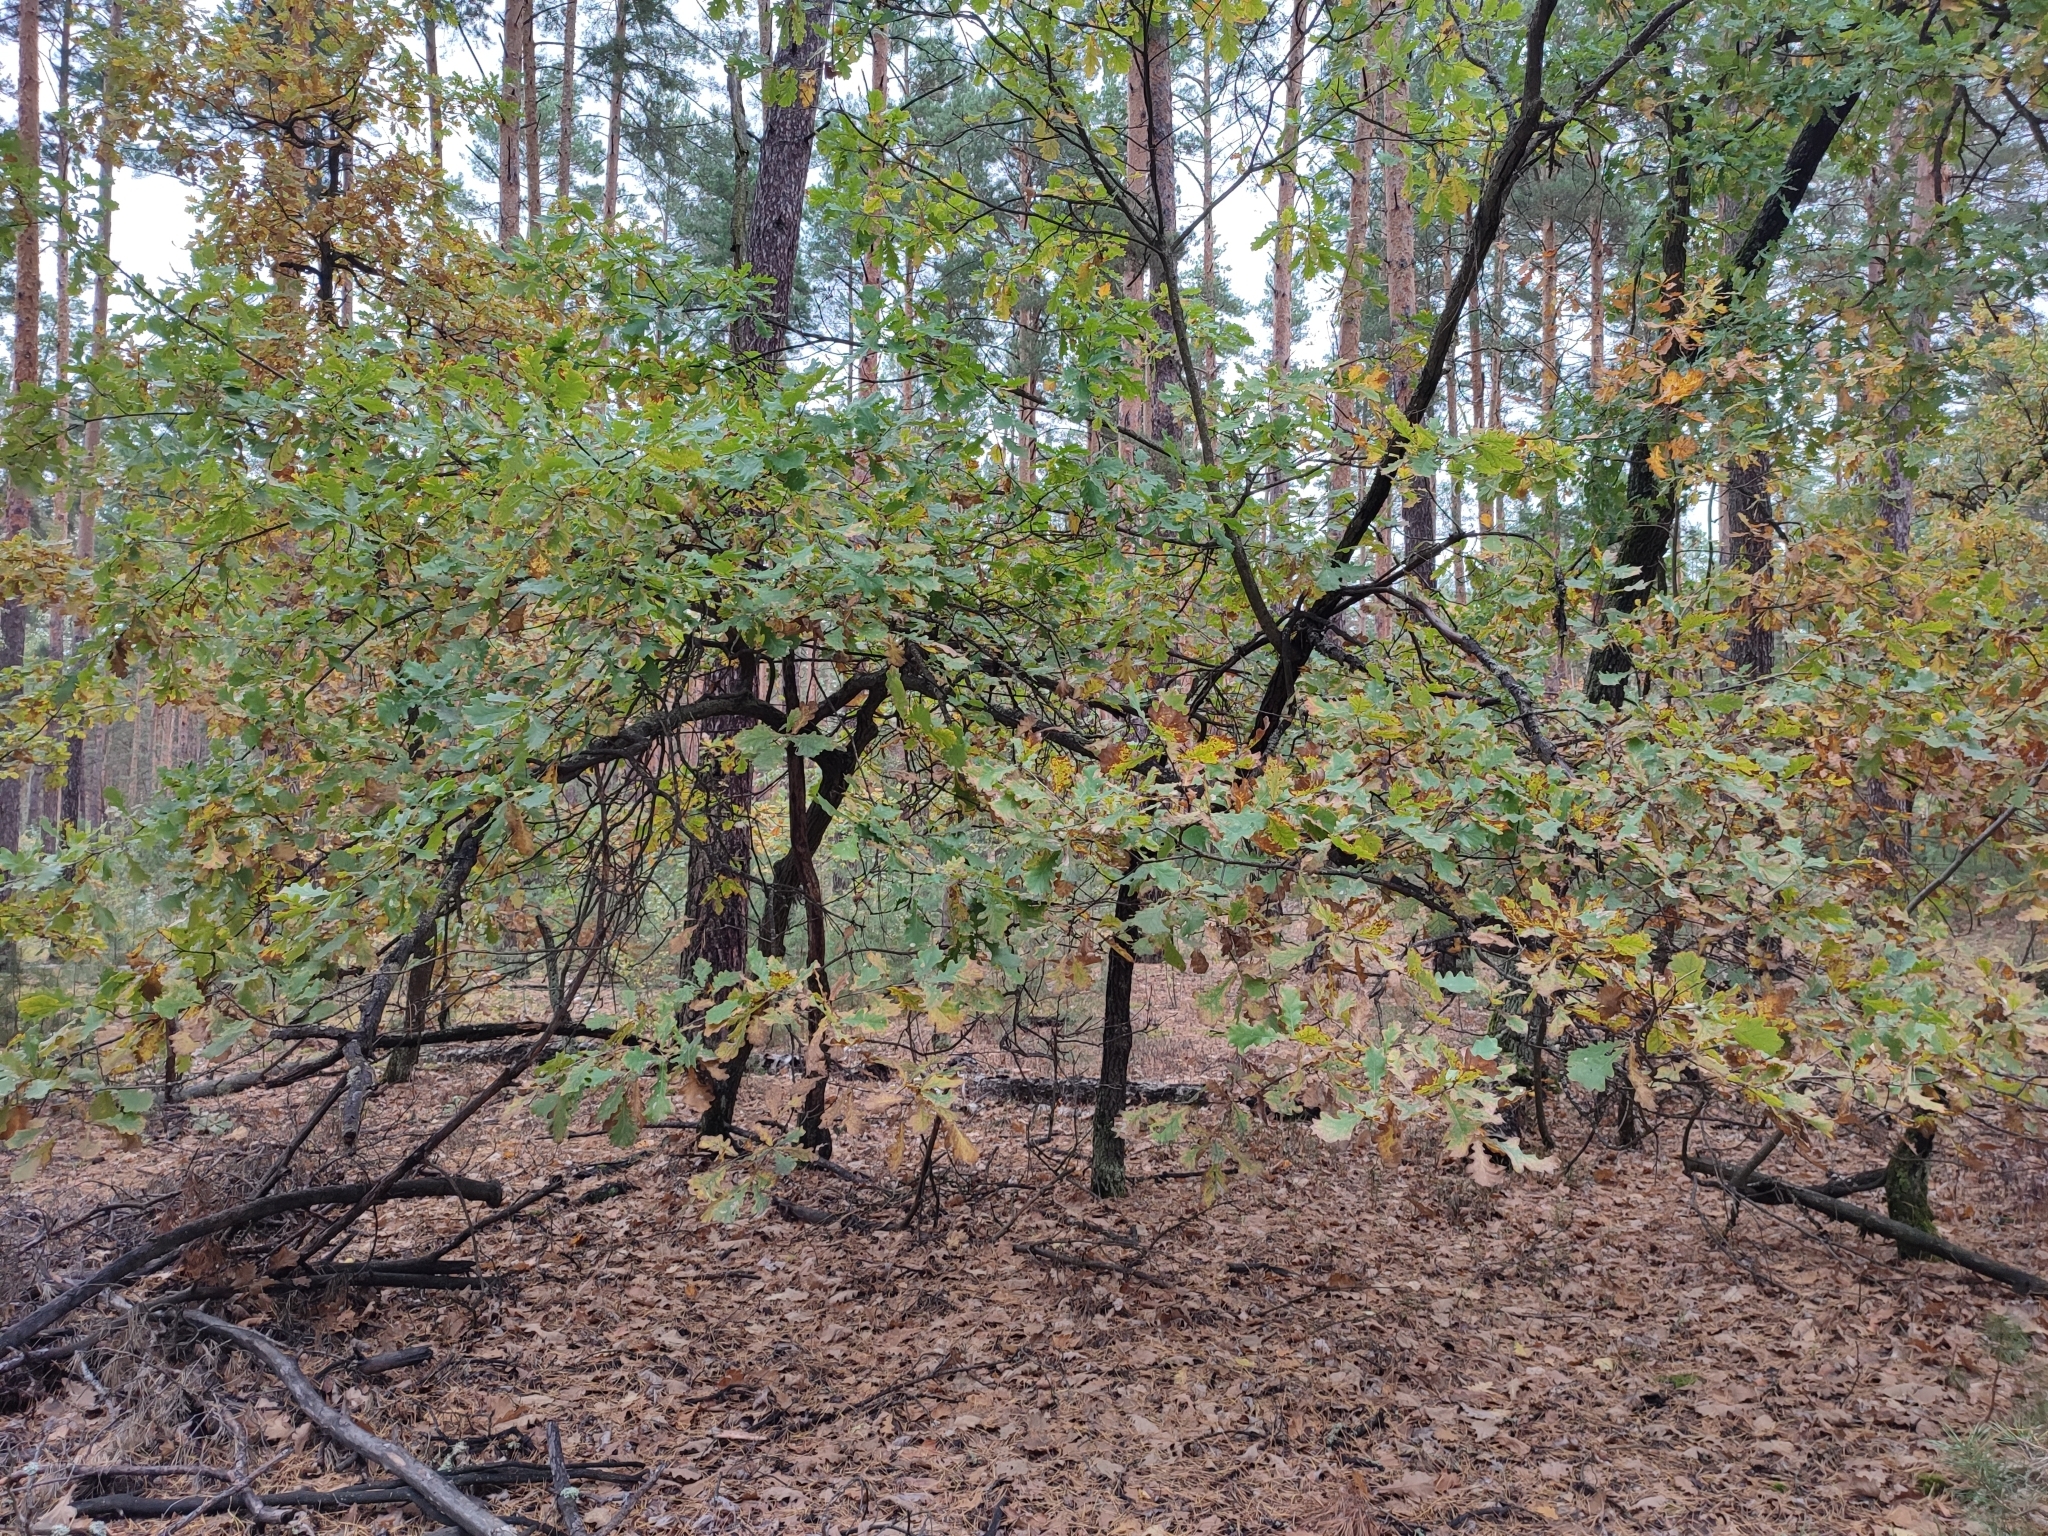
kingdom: Plantae
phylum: Tracheophyta
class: Magnoliopsida
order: Fagales
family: Fagaceae
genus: Quercus
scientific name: Quercus robur
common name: Pedunculate oak
